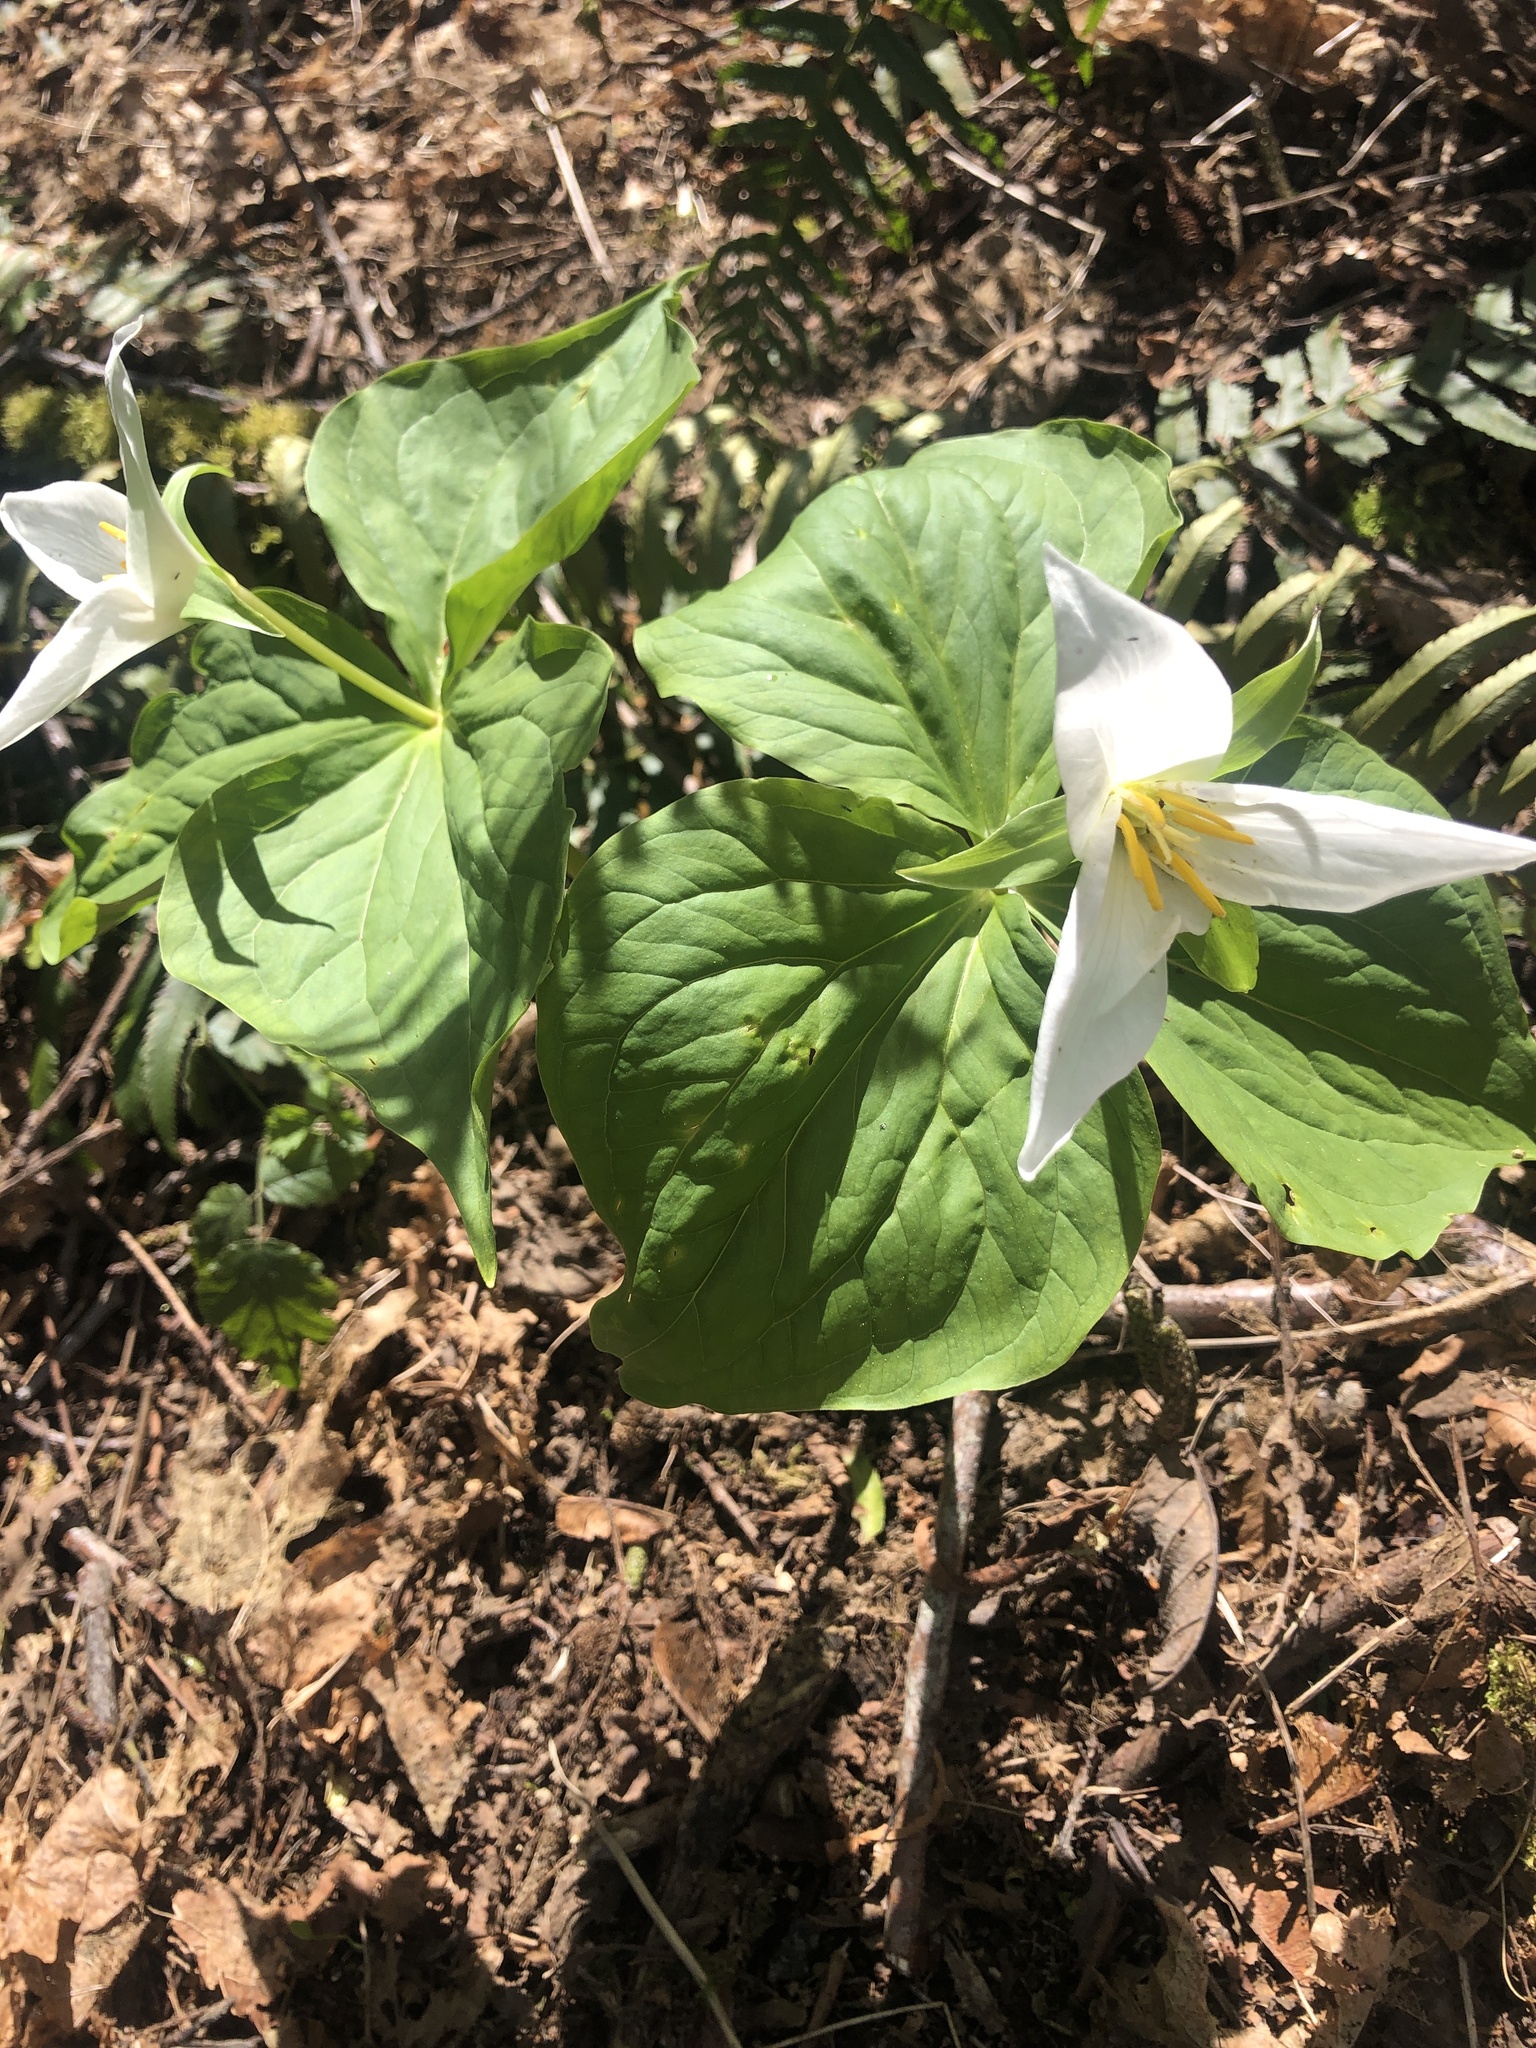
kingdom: Plantae
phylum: Tracheophyta
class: Liliopsida
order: Liliales
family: Melanthiaceae
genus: Trillium
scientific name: Trillium ovatum
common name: Pacific trillium
